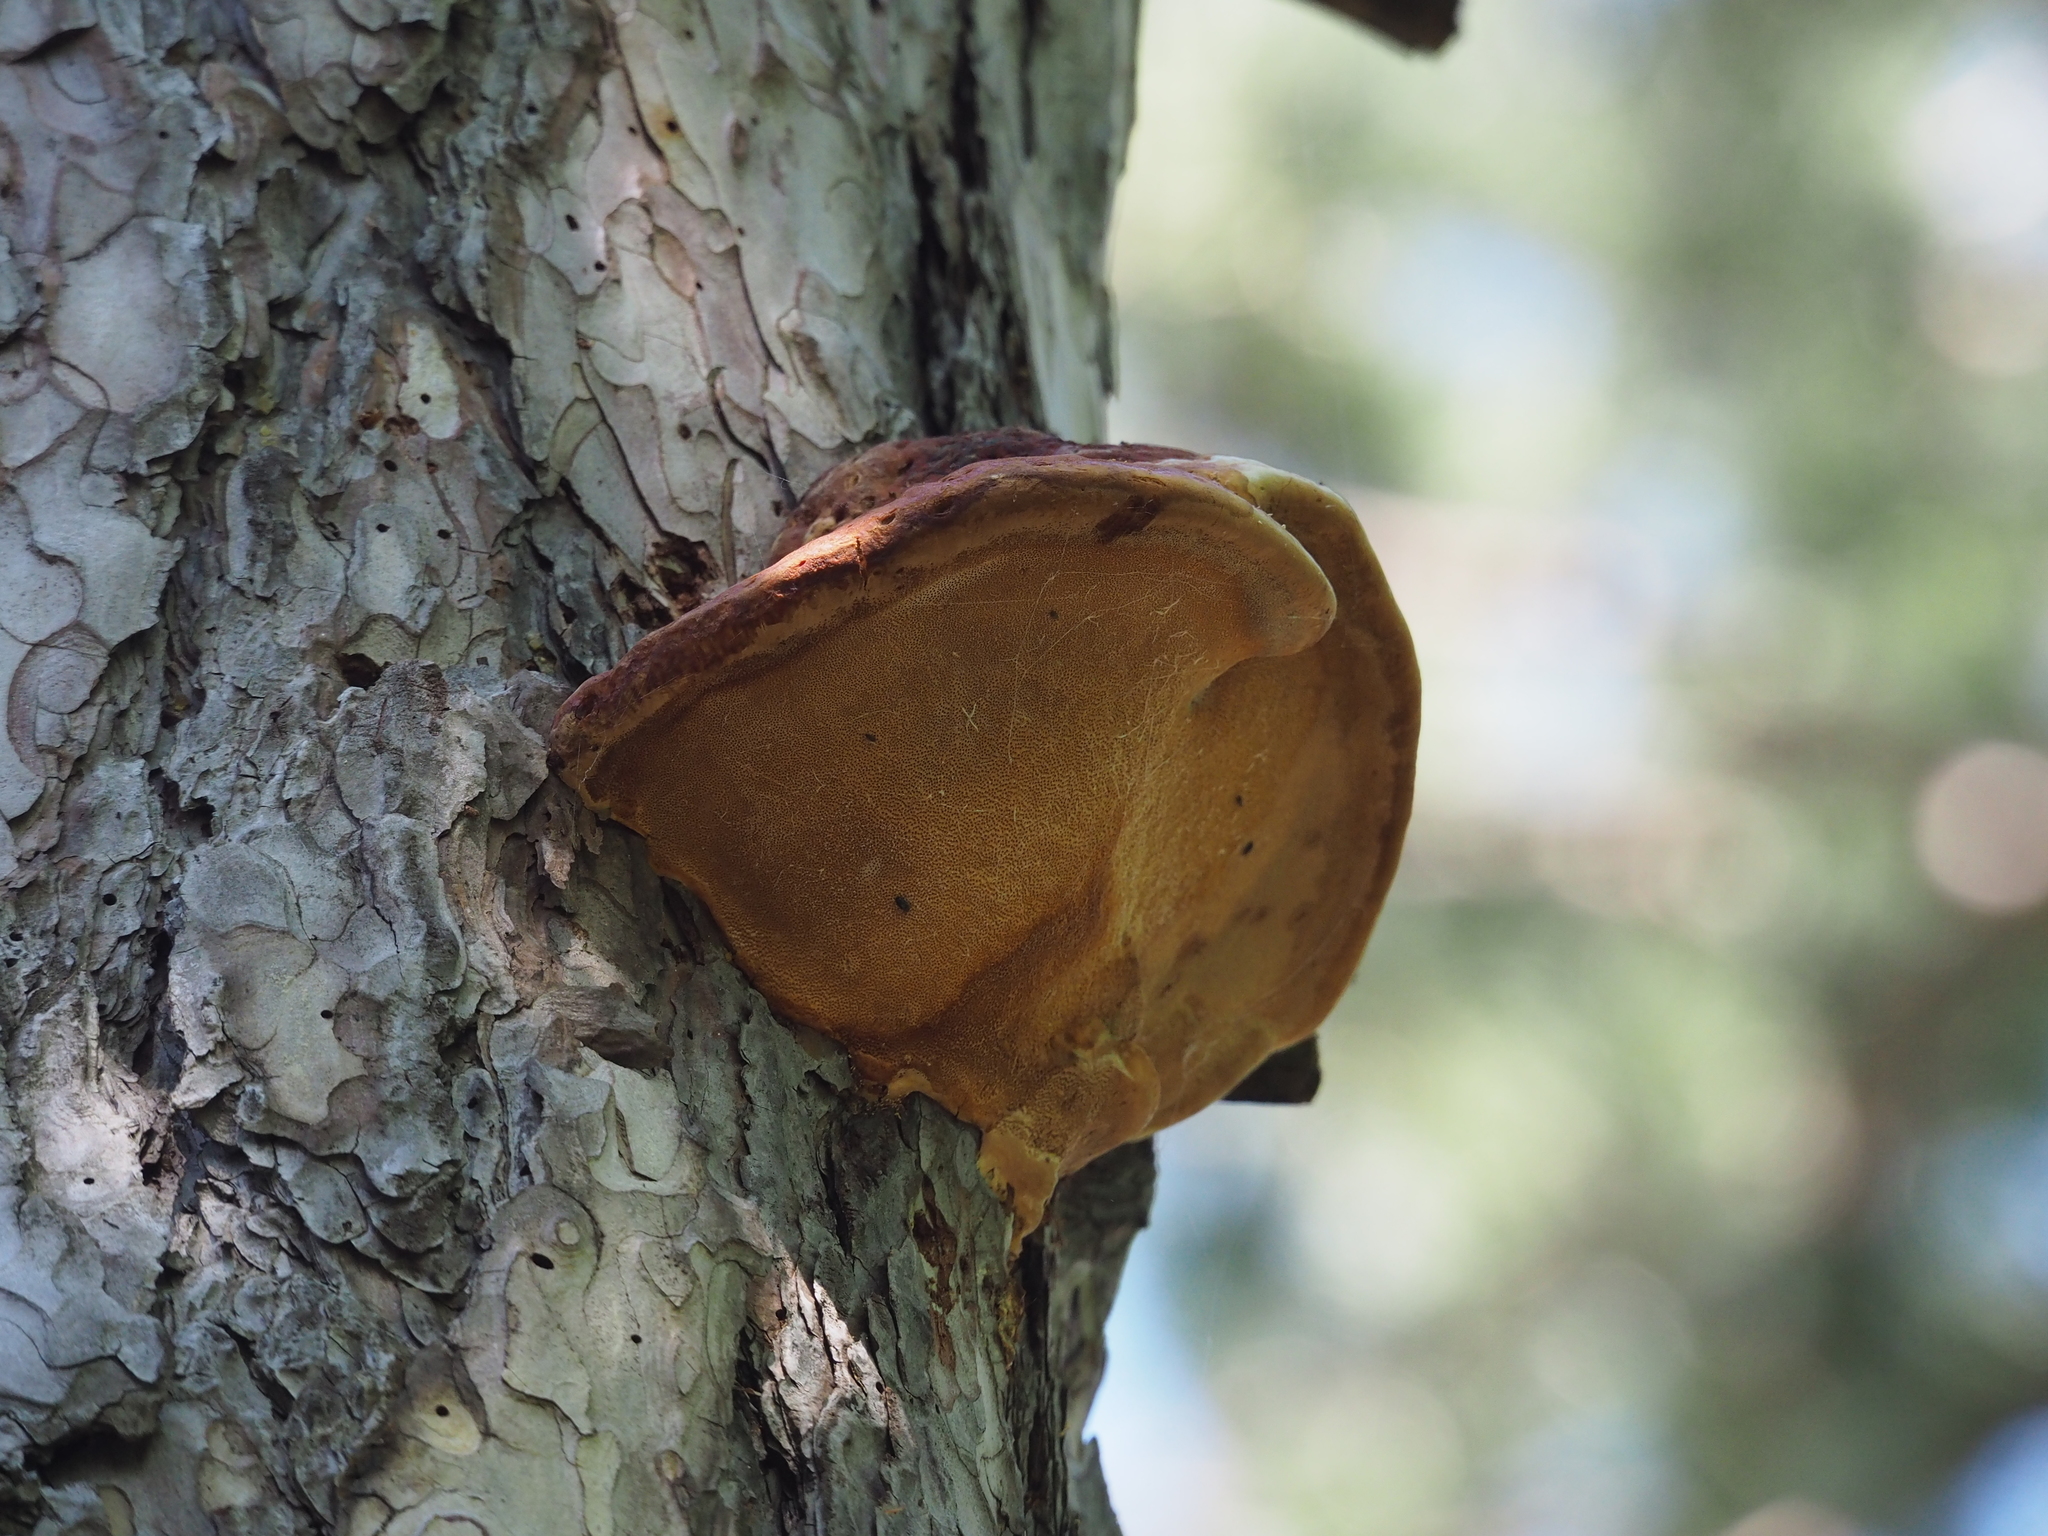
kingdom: Fungi
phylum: Basidiomycota
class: Agaricomycetes
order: Polyporales
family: Fomitopsidaceae
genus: Fomitopsis
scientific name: Fomitopsis pinicola
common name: Red-belted bracket
